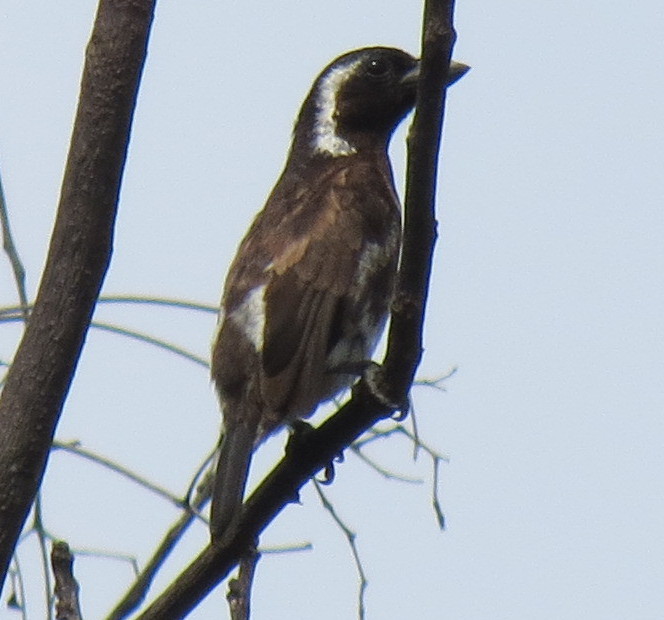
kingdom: Animalia
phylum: Chordata
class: Aves
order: Piciformes
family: Lybiidae
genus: Stactolaema
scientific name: Stactolaema leucotis
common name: White-eared barbet
